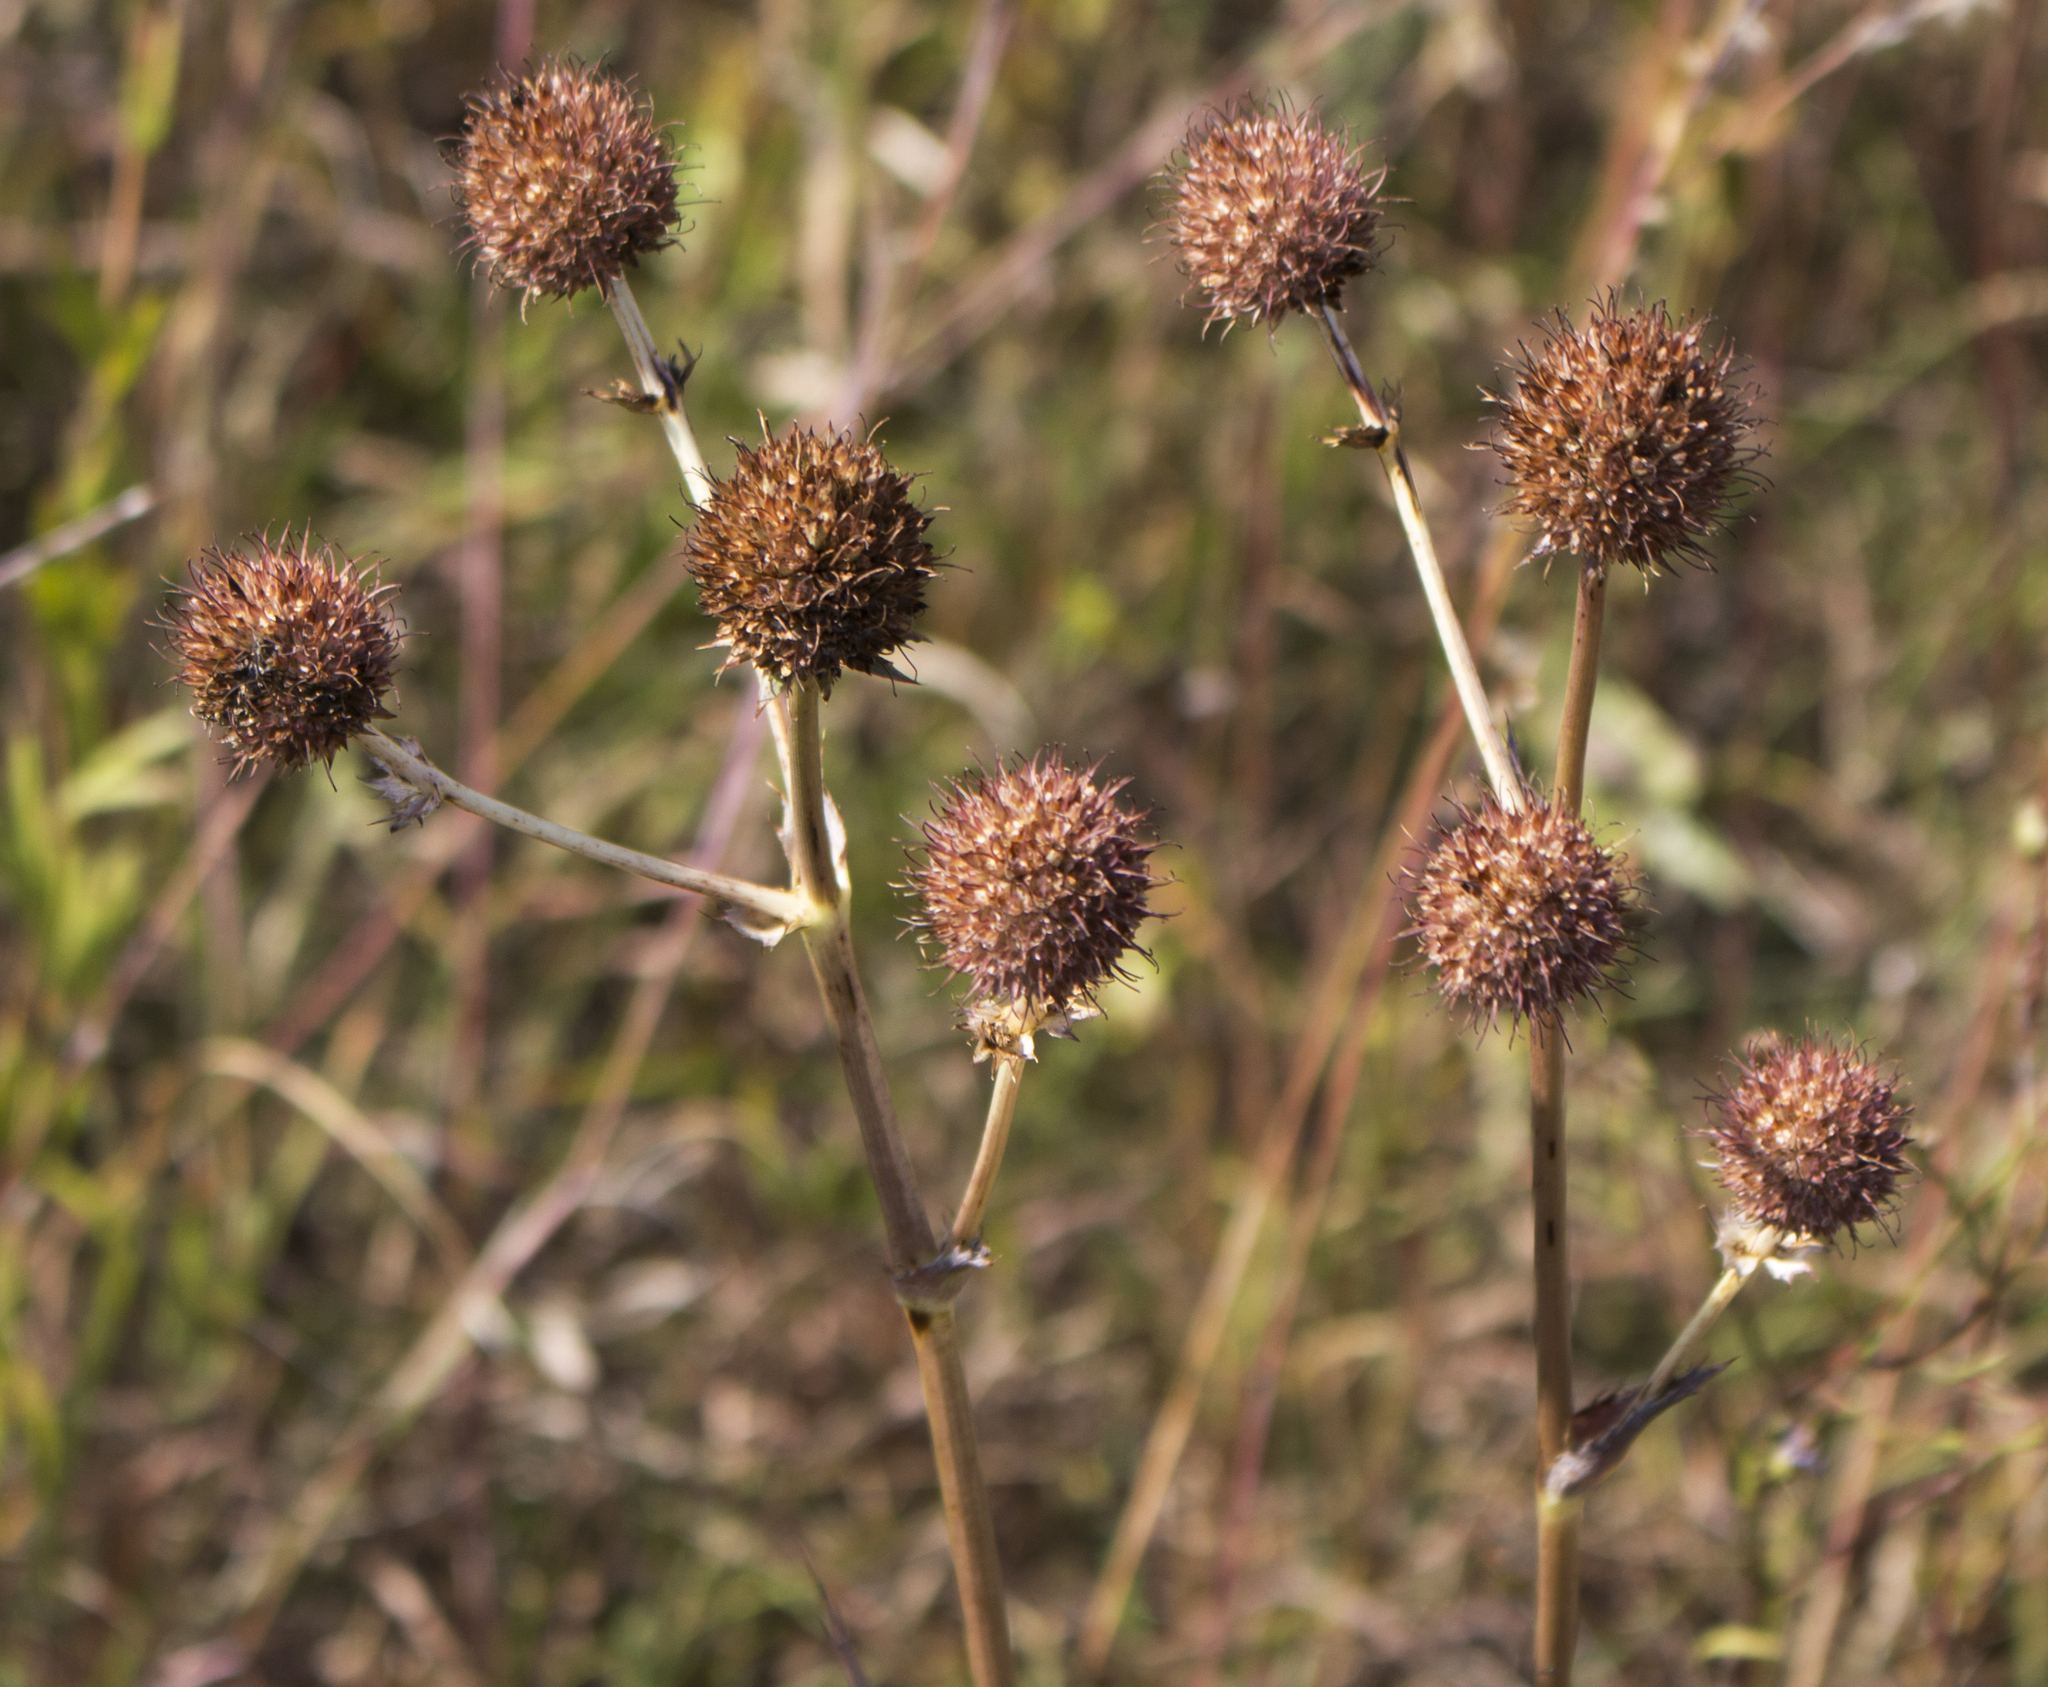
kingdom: Plantae
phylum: Tracheophyta
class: Magnoliopsida
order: Apiales
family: Apiaceae
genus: Eryngium
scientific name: Eryngium yuccifolium
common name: Button eryngo
